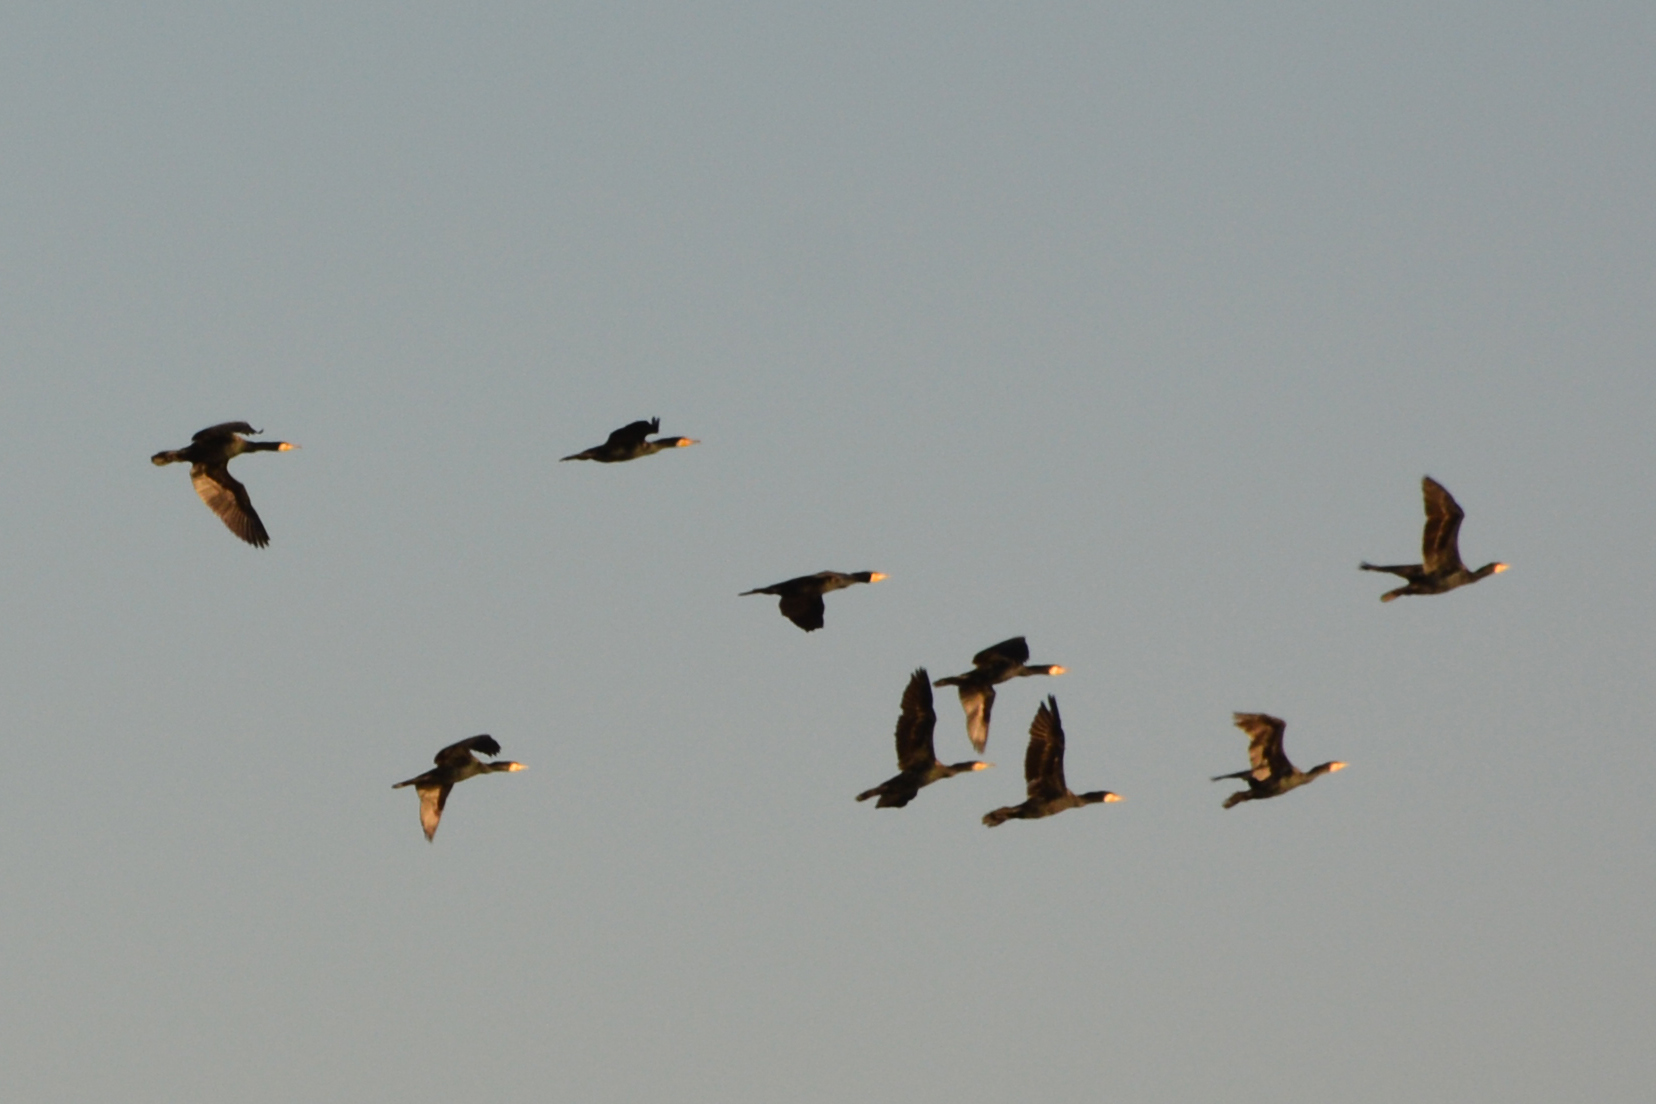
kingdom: Animalia
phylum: Chordata
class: Aves
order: Suliformes
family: Phalacrocoracidae
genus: Phalacrocorax
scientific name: Phalacrocorax carbo
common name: Great cormorant
